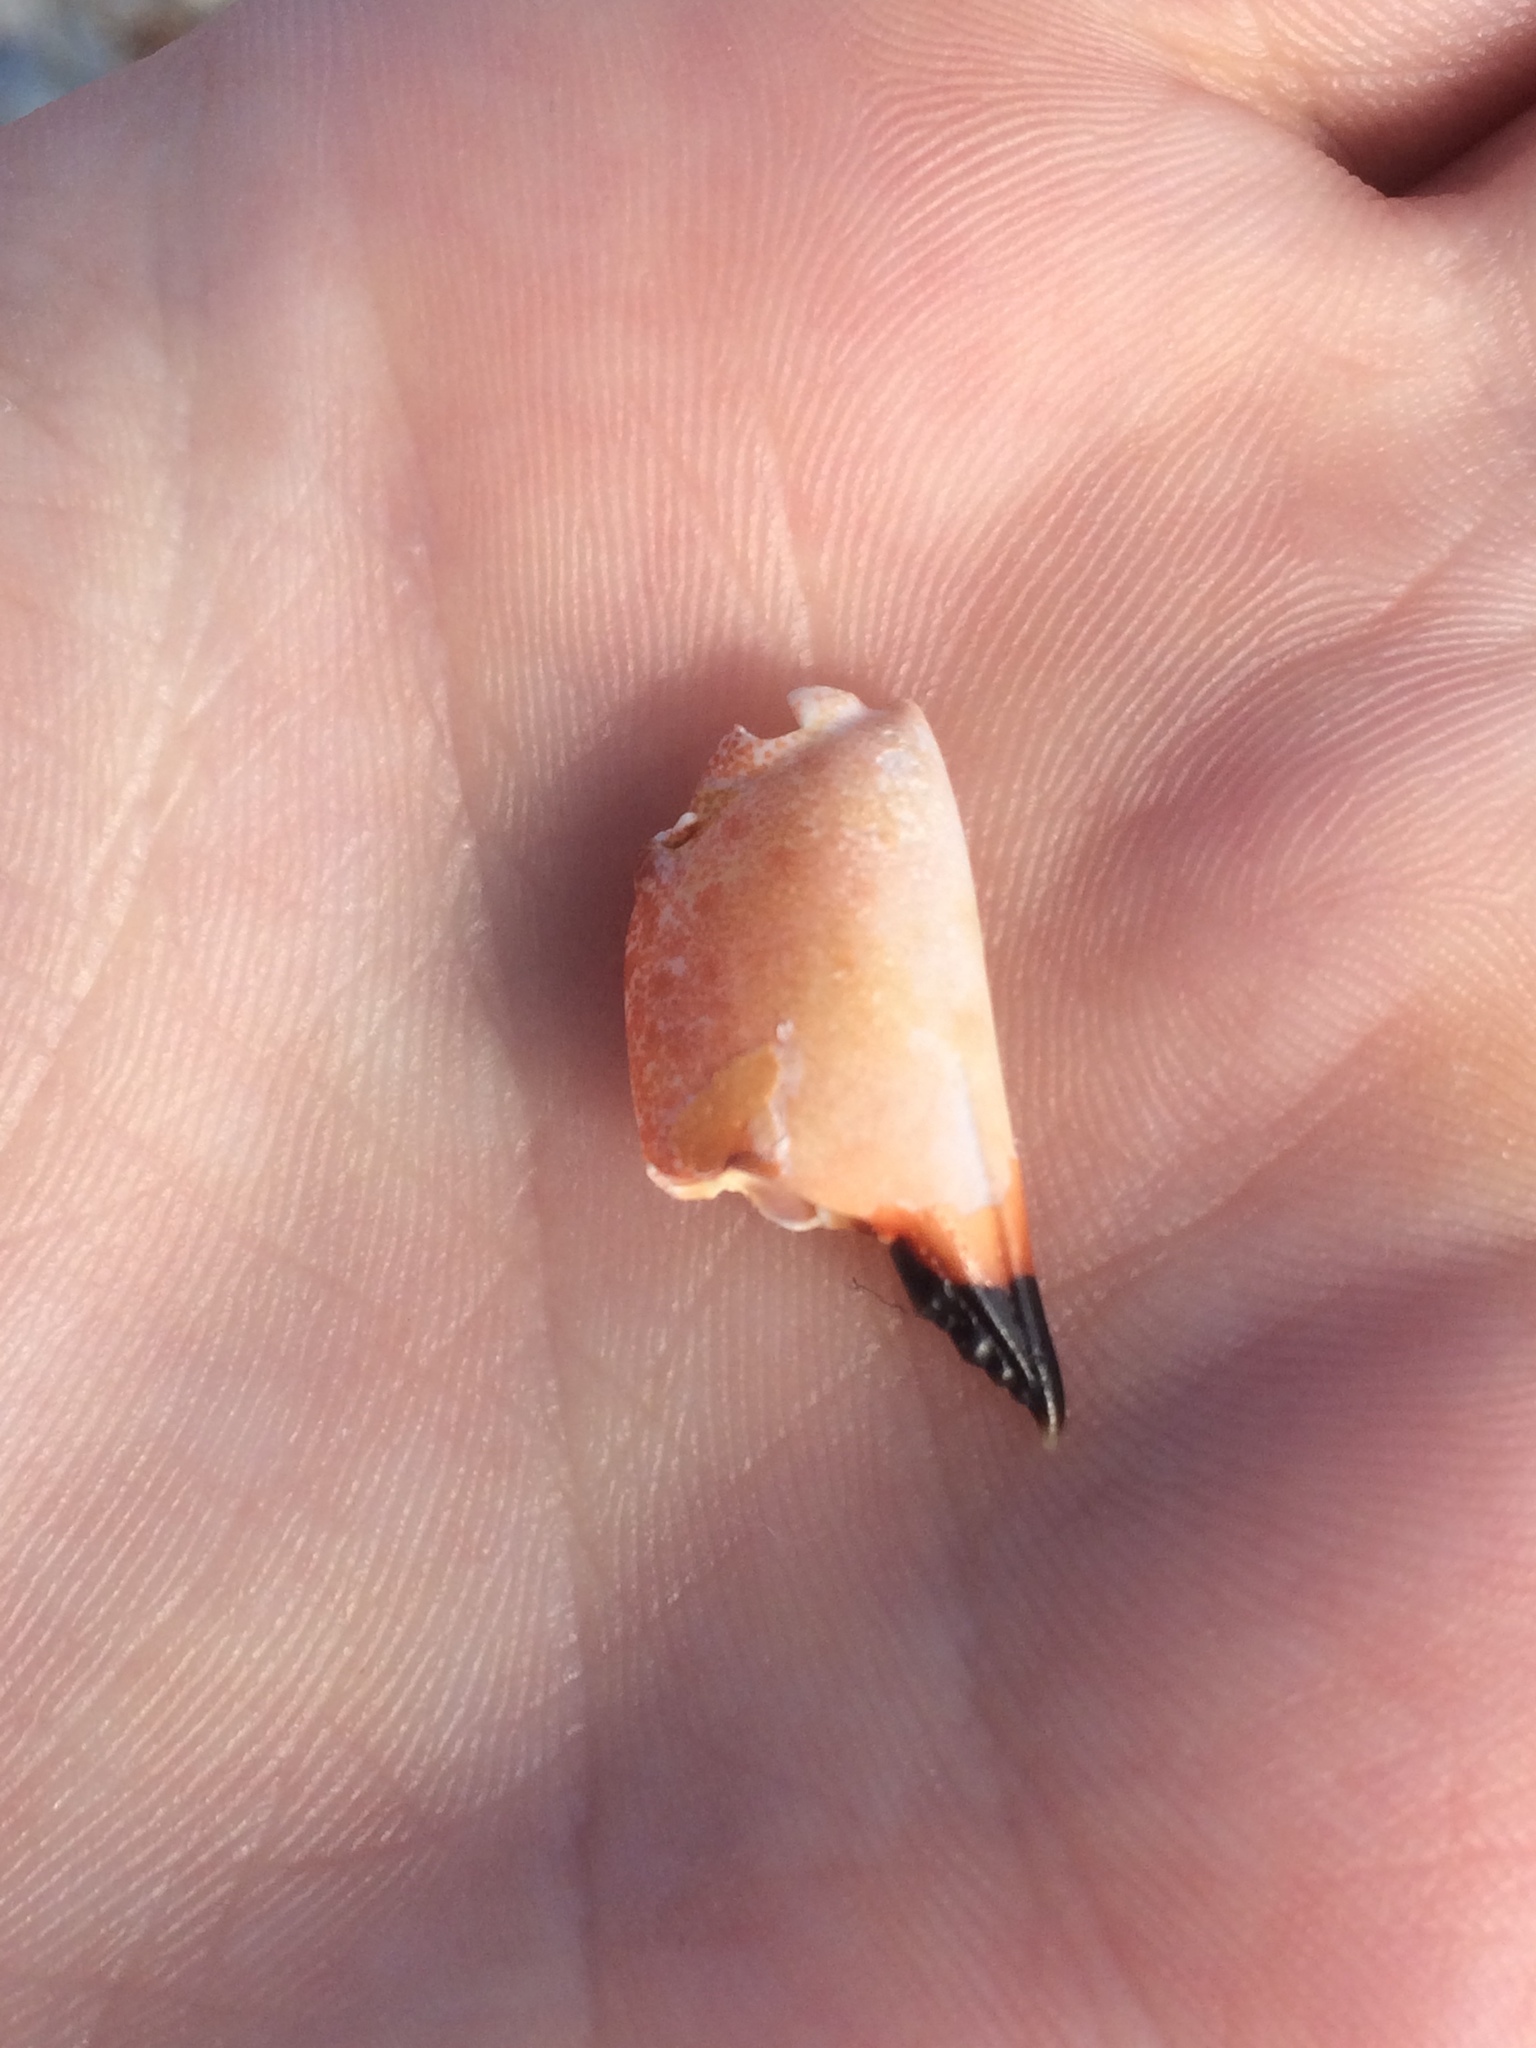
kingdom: Animalia
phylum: Arthropoda
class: Malacostraca
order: Decapoda
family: Menippidae
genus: Menippe
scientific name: Menippe mercenaria
